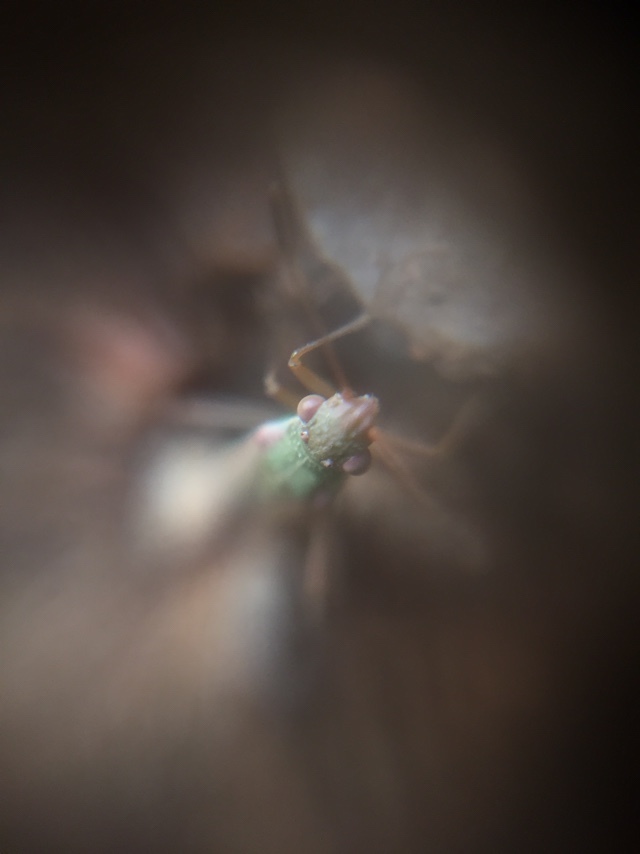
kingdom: Animalia
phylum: Arthropoda
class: Insecta
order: Hemiptera
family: Rhopalidae
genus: Agraphopus
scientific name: Agraphopus lethierryi
